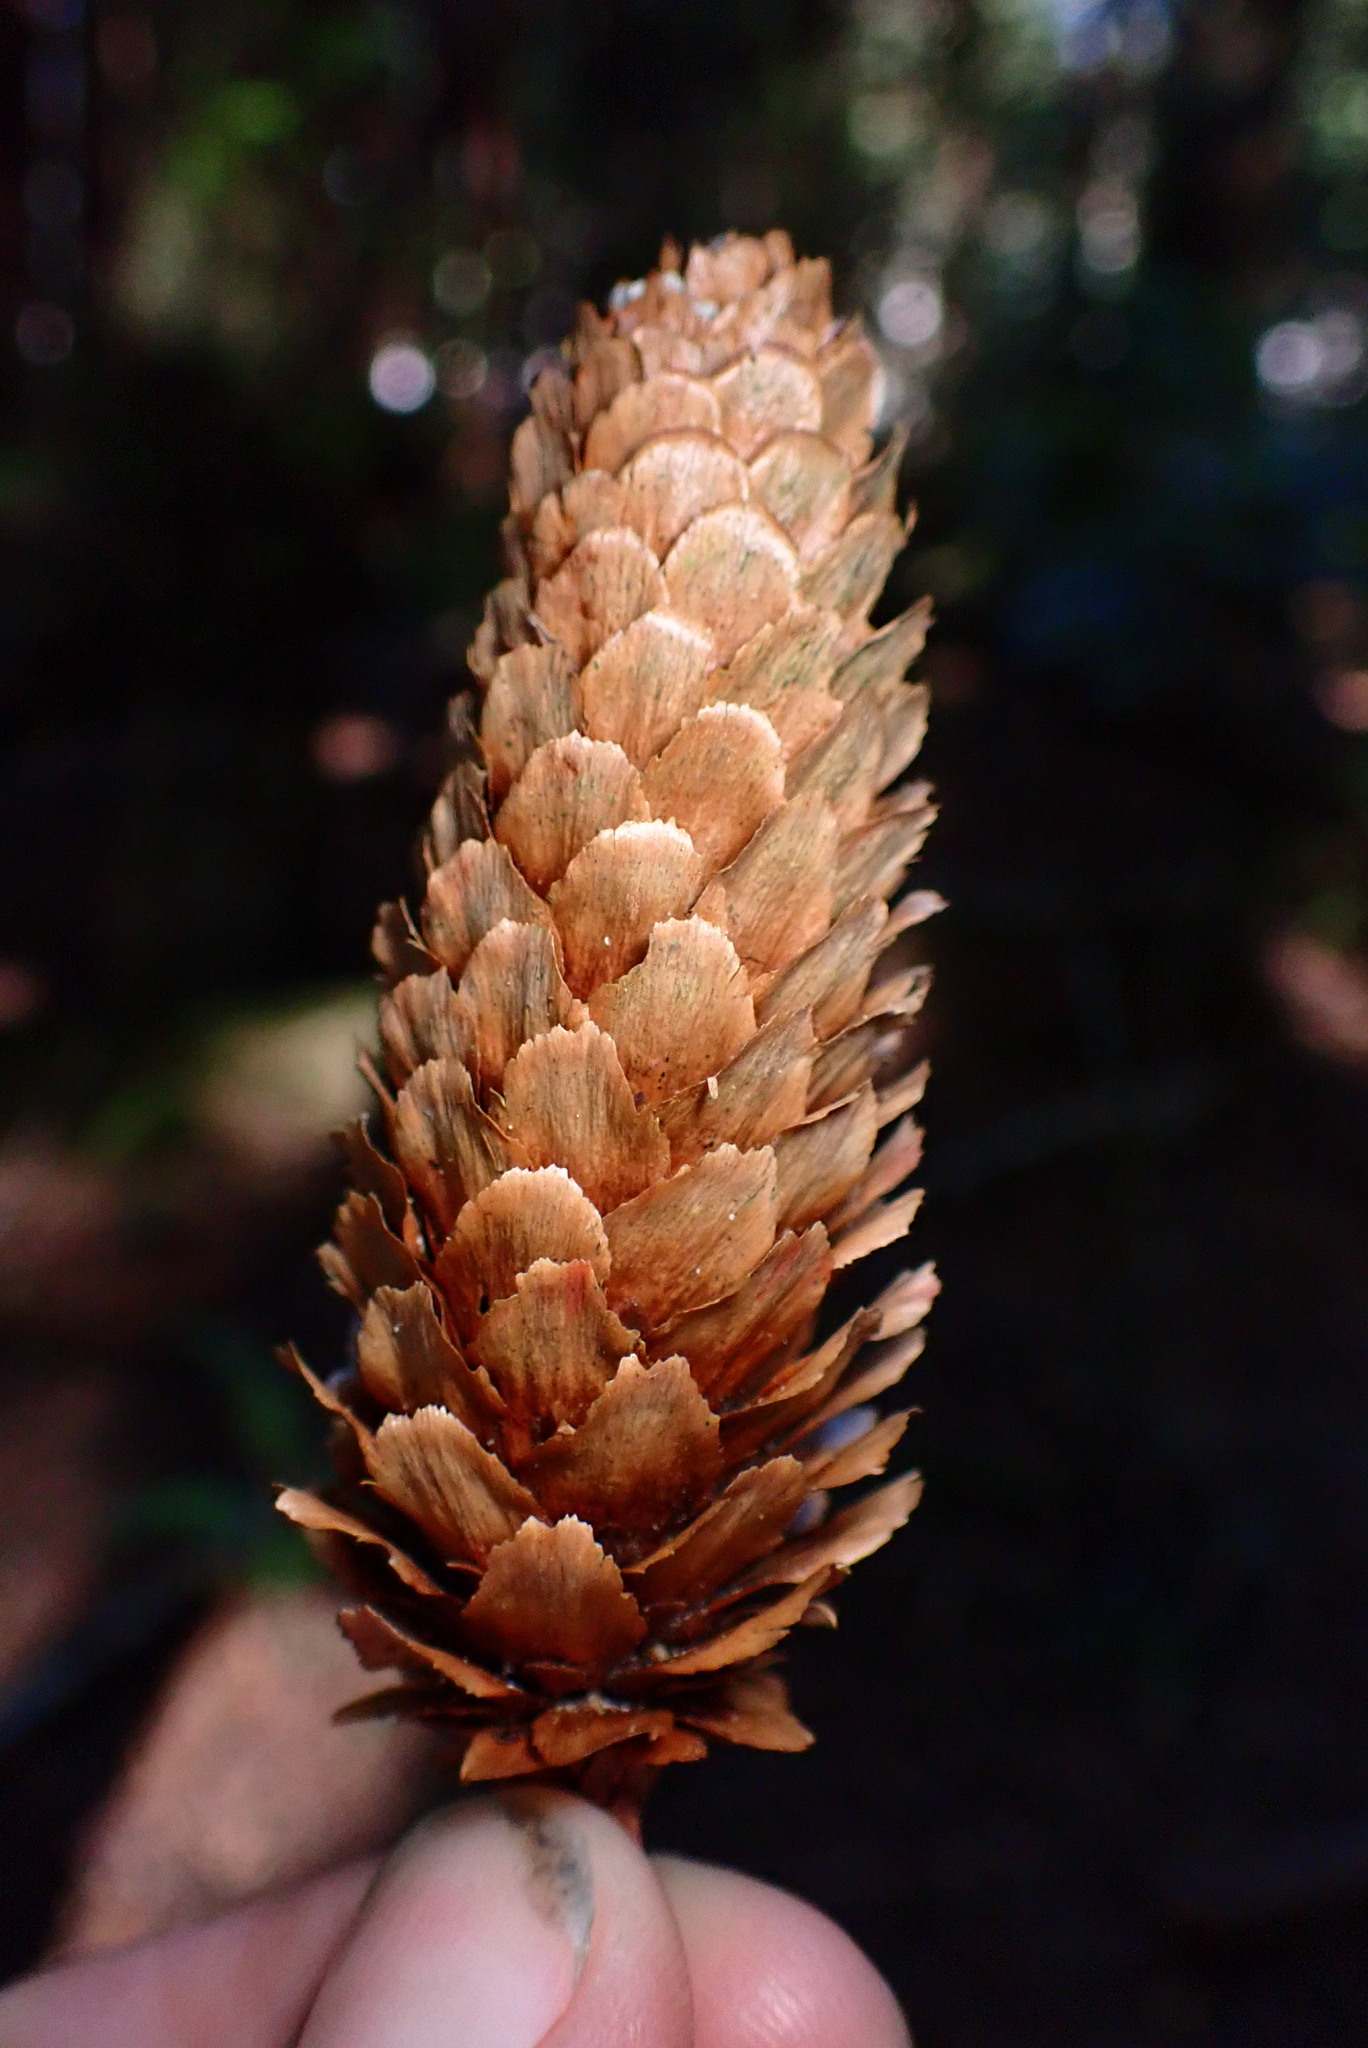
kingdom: Plantae
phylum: Tracheophyta
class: Pinopsida
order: Pinales
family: Pinaceae
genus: Picea
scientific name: Picea sitchensis
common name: Sitka spruce
